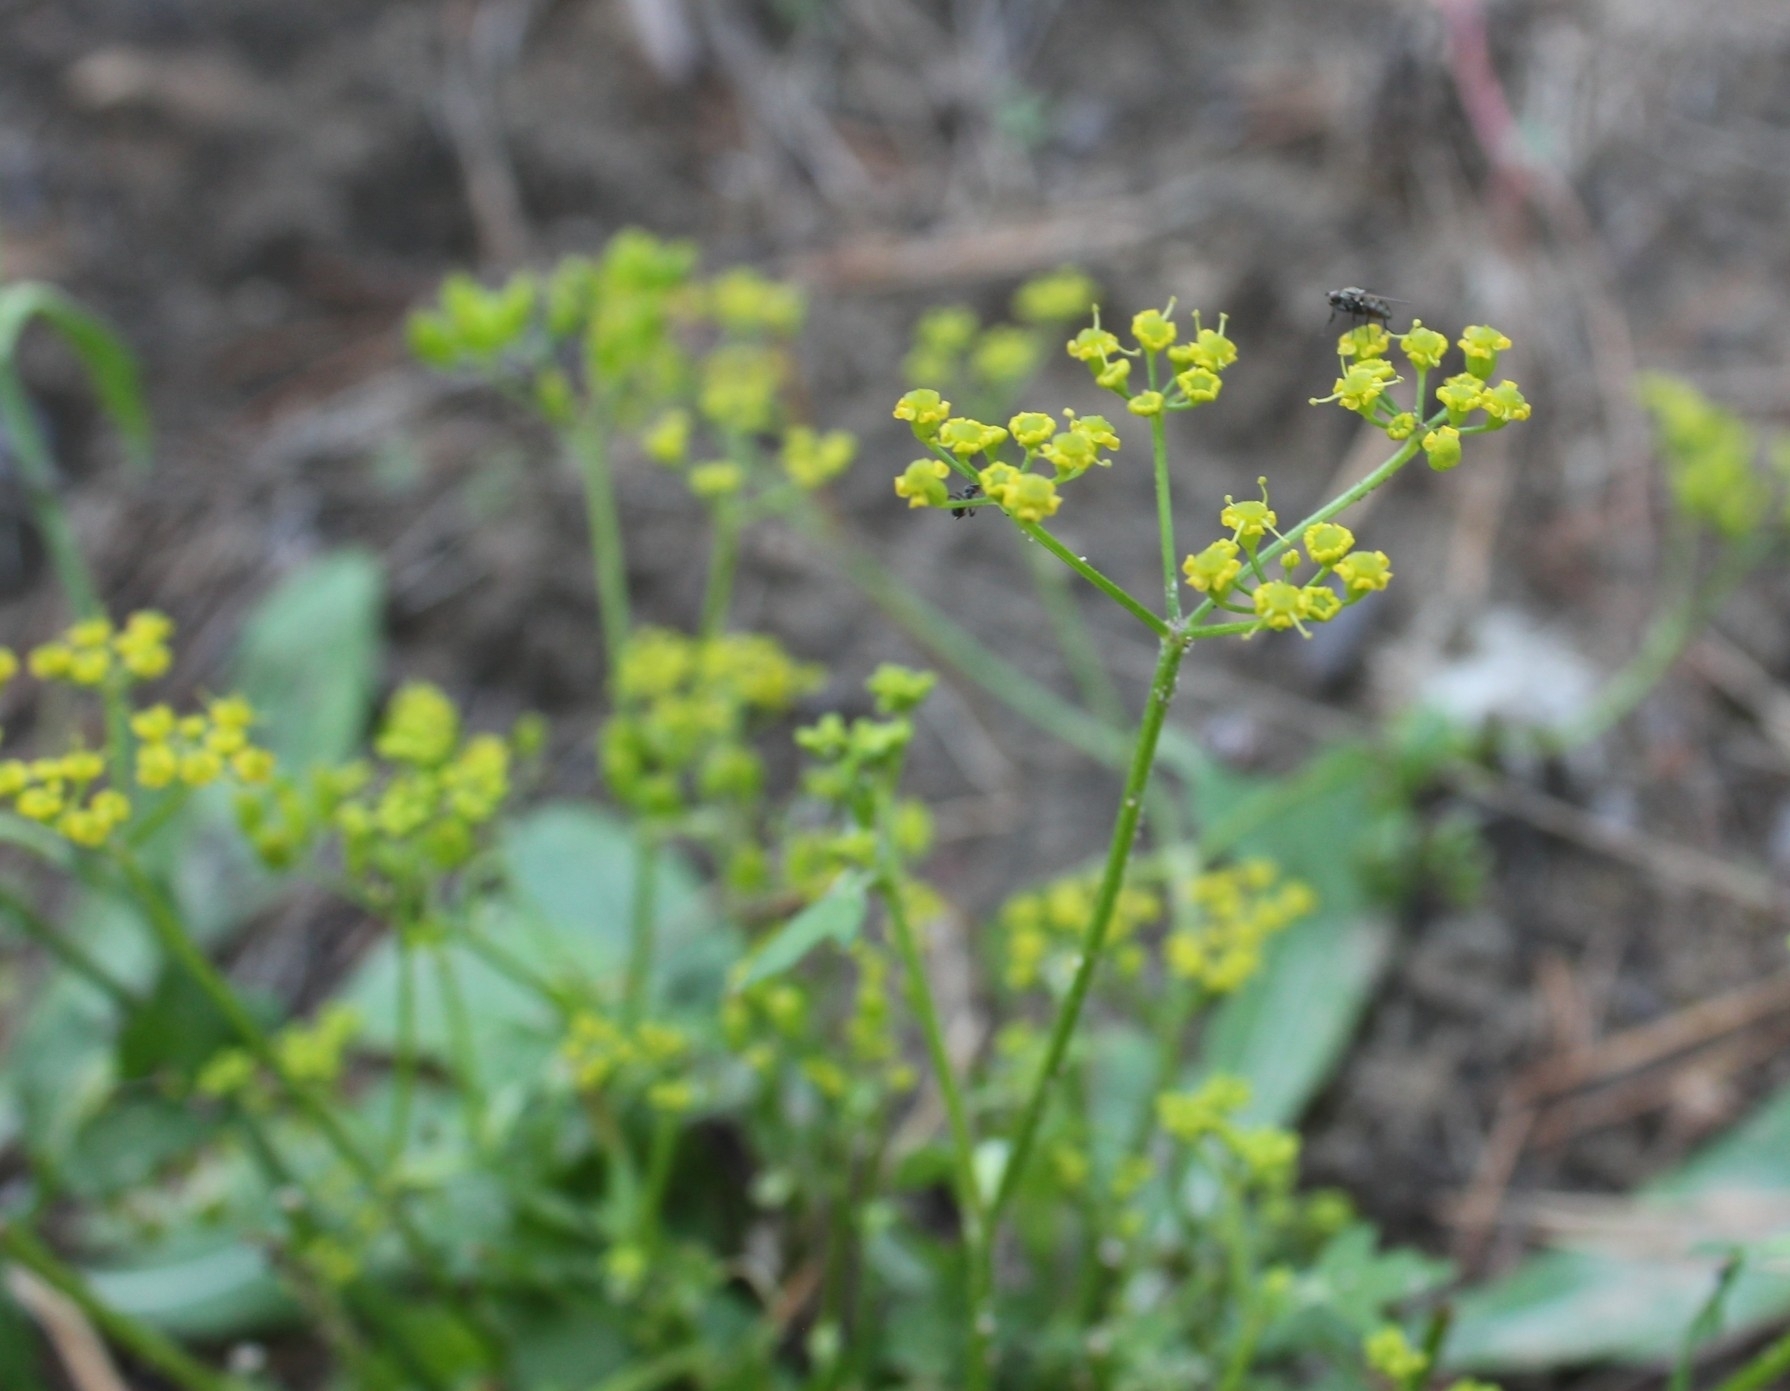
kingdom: Plantae
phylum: Tracheophyta
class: Magnoliopsida
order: Apiales
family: Apiaceae
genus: Pastinaca
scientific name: Pastinaca sativa
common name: Wild parsnip
